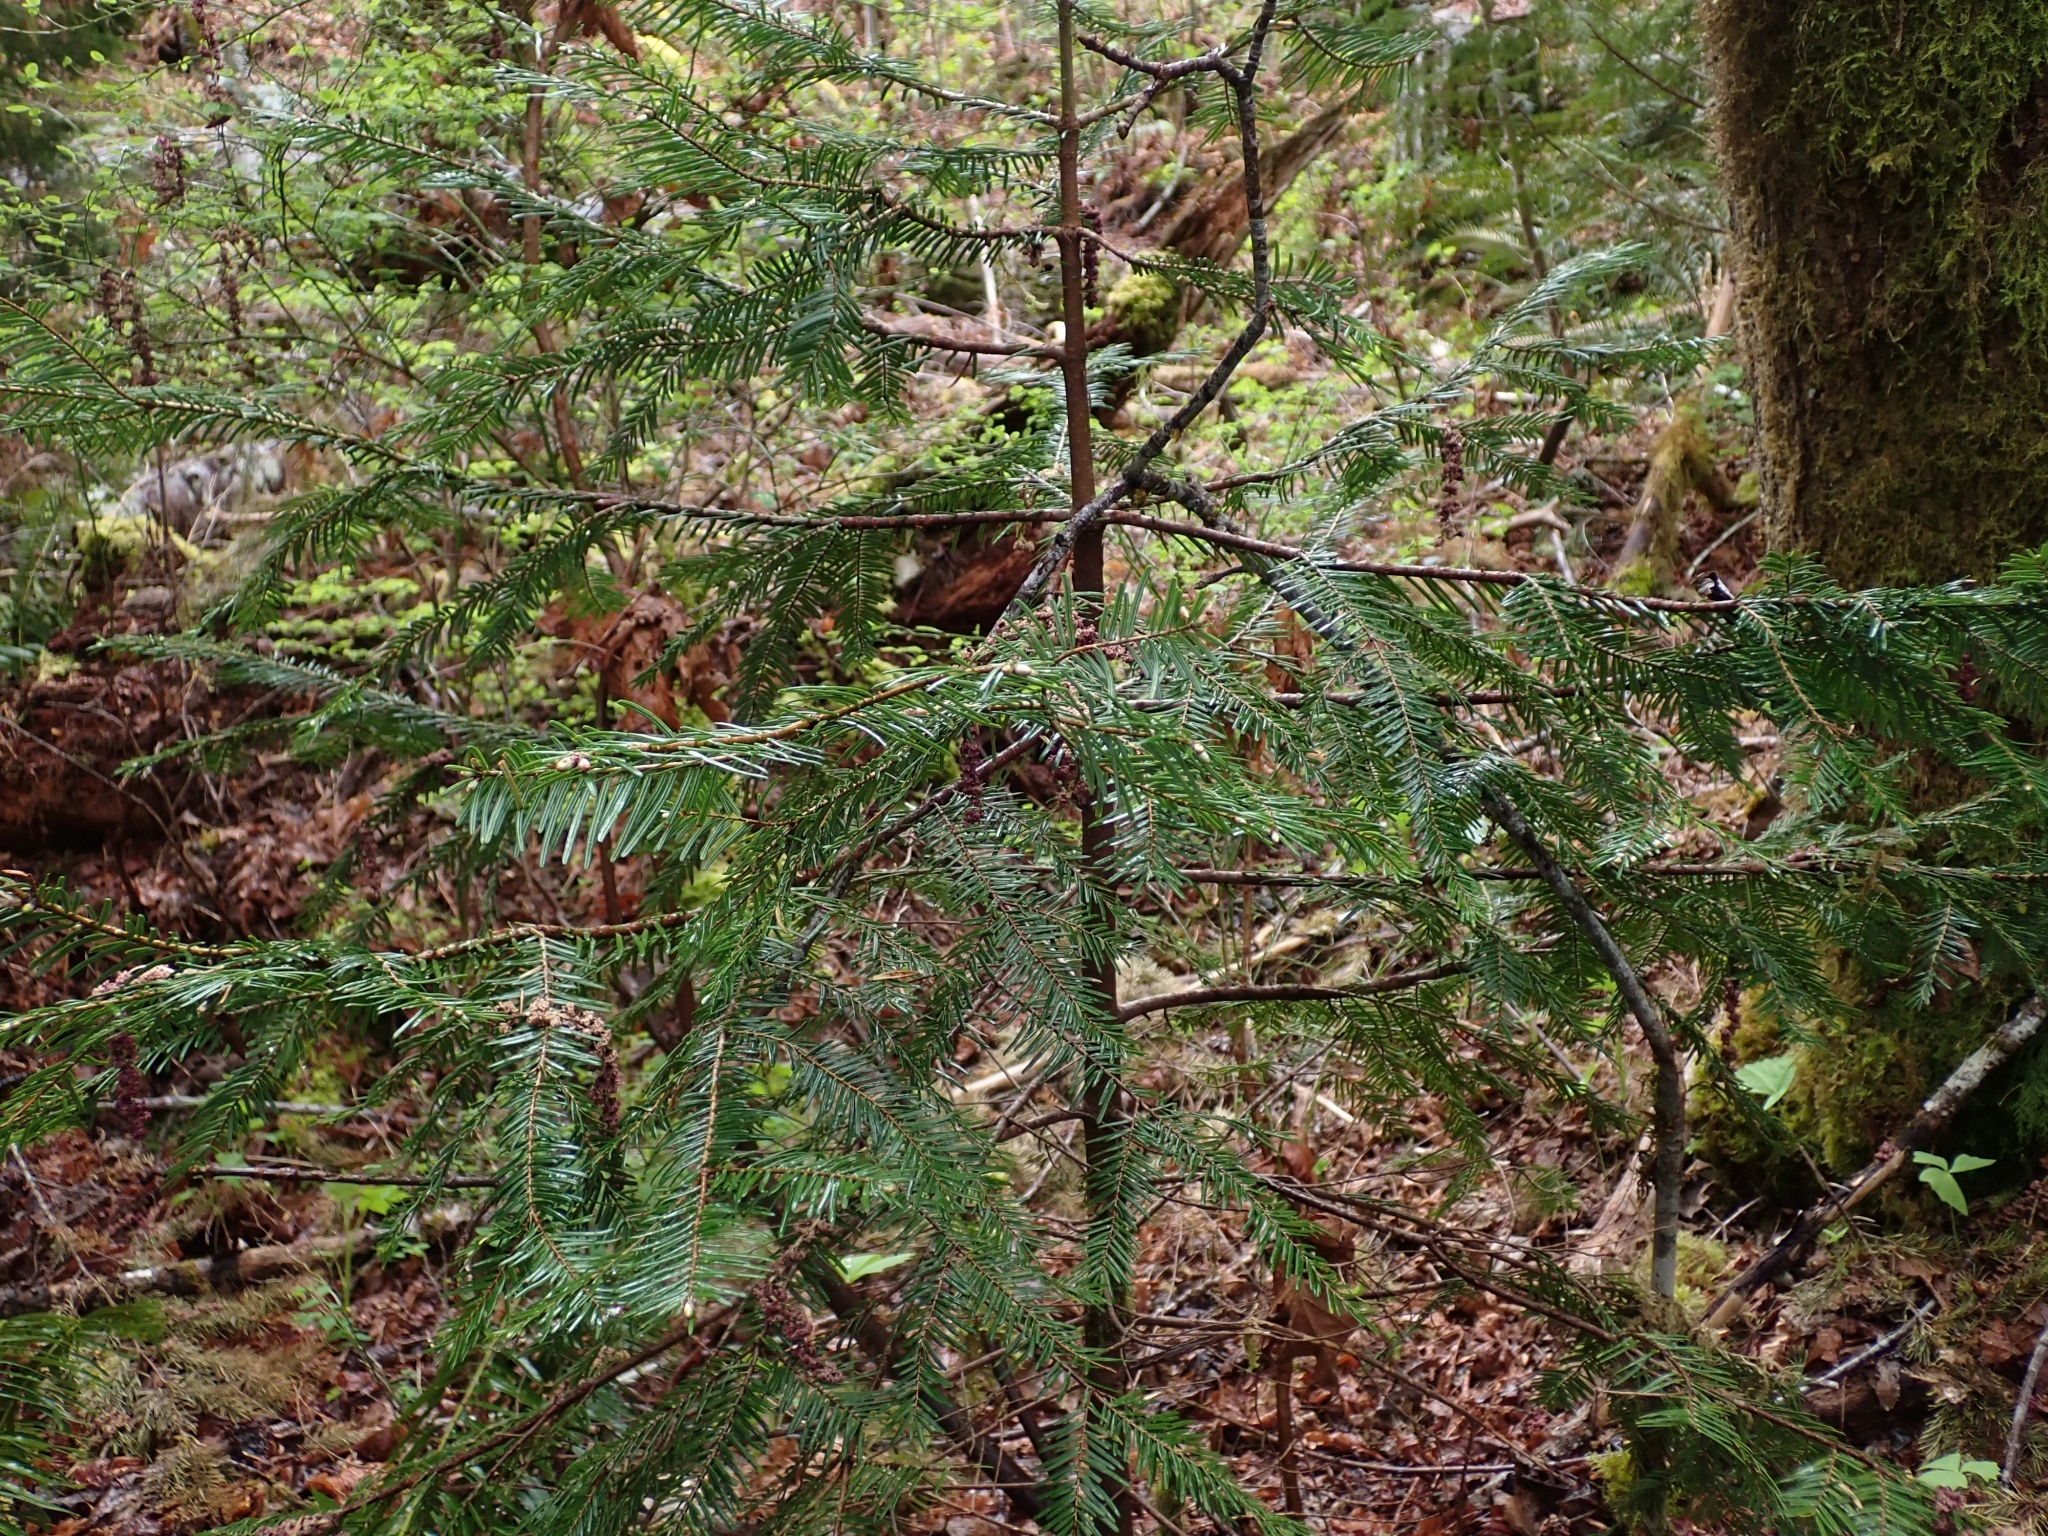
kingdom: Plantae
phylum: Tracheophyta
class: Pinopsida
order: Pinales
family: Pinaceae
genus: Abies
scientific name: Abies grandis
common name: Giant fir
